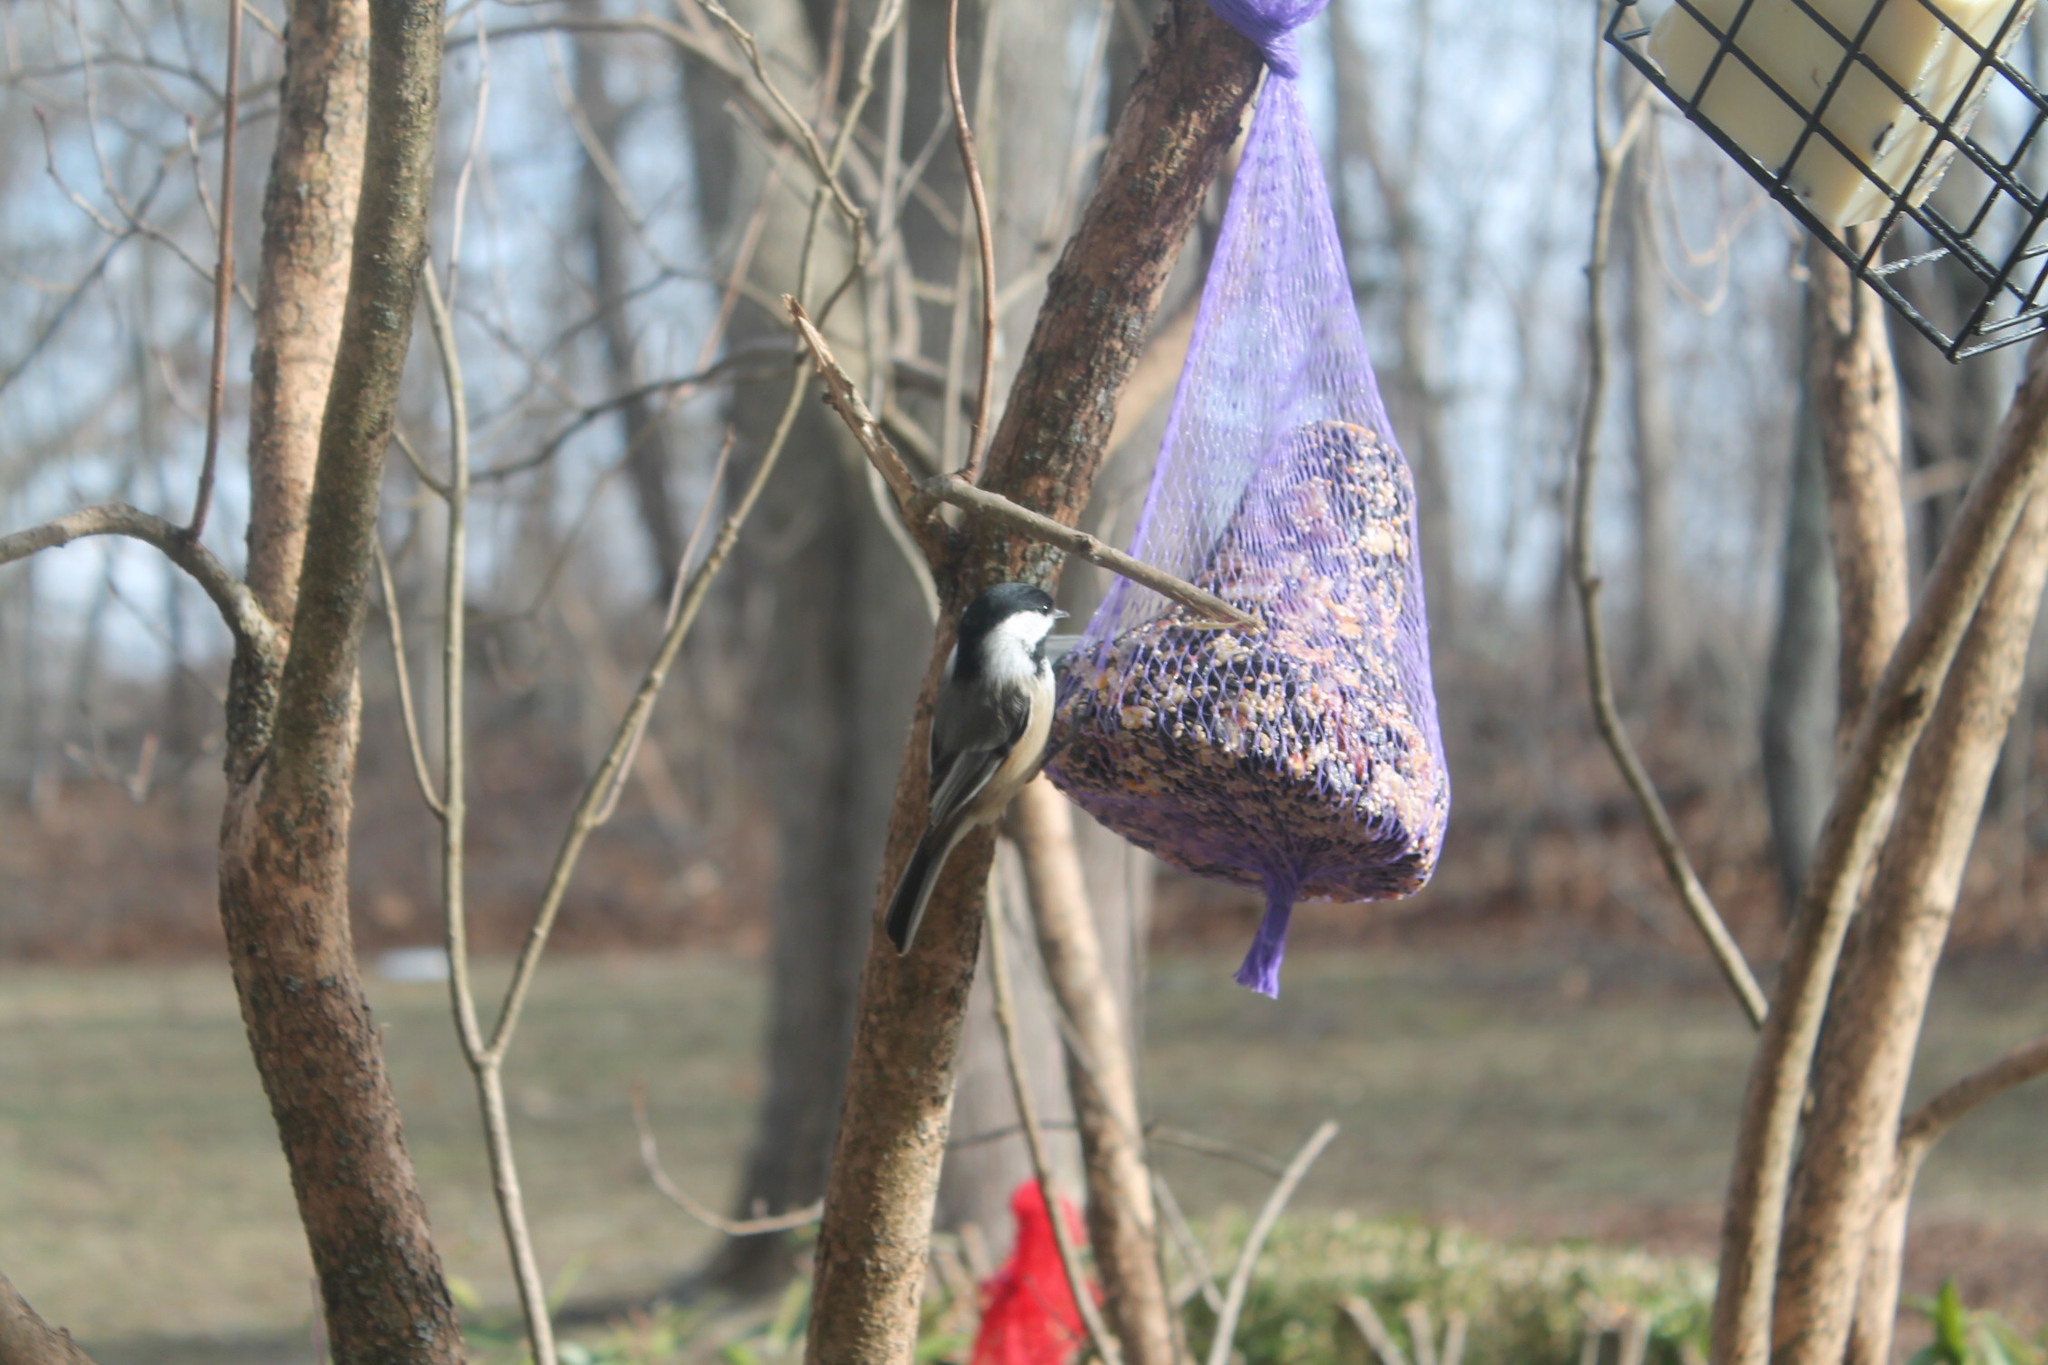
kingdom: Animalia
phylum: Chordata
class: Aves
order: Passeriformes
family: Paridae
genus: Poecile
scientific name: Poecile atricapillus
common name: Black-capped chickadee
